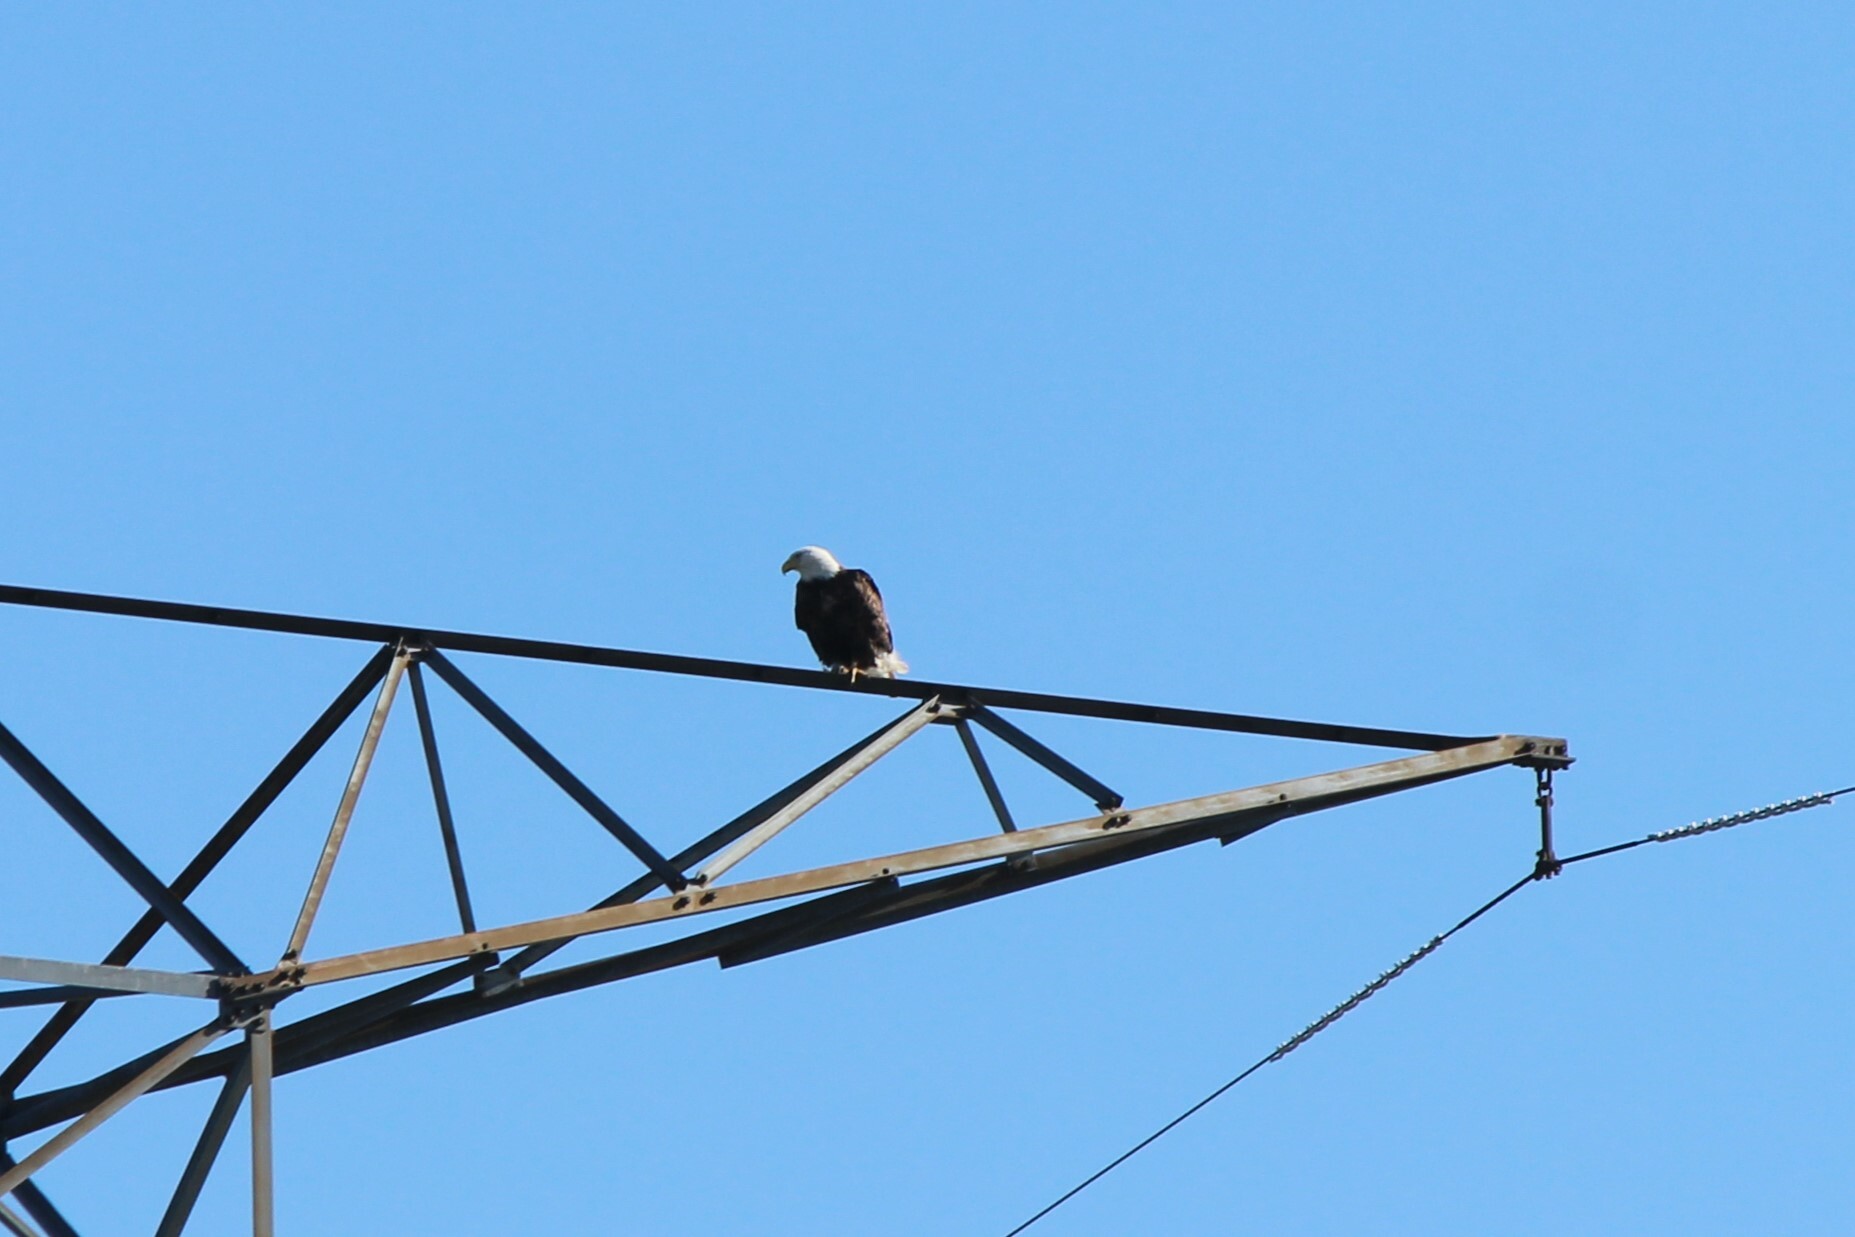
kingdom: Animalia
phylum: Chordata
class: Aves
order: Accipitriformes
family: Accipitridae
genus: Haliaeetus
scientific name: Haliaeetus leucocephalus
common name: Bald eagle
